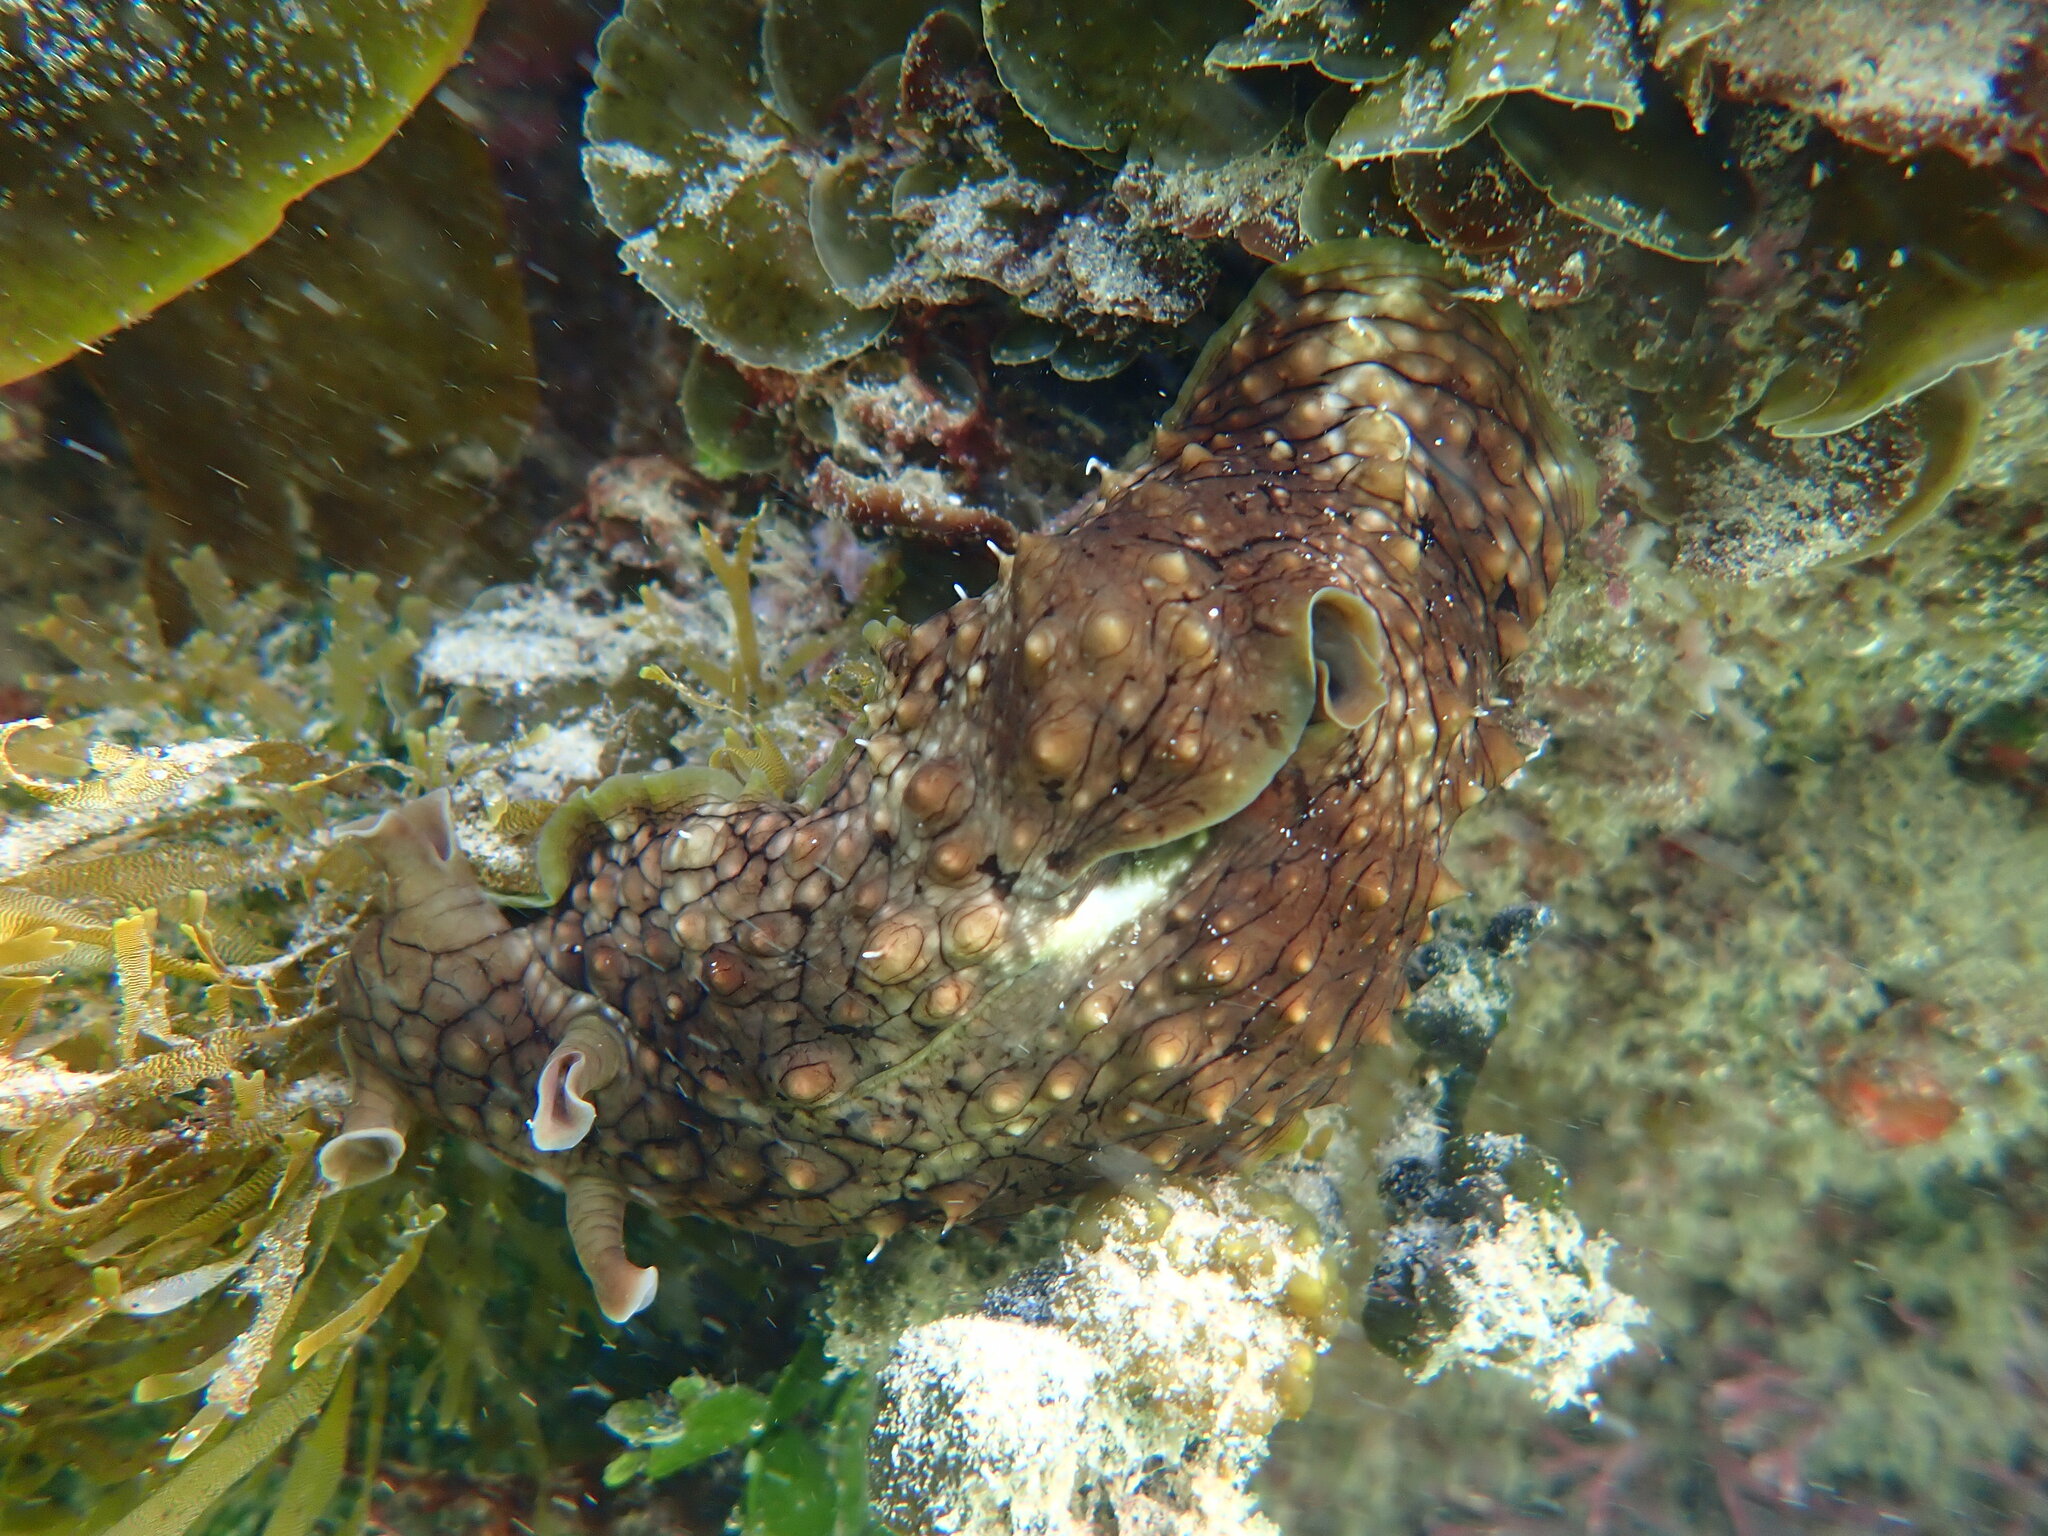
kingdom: Animalia
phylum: Mollusca
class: Gastropoda
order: Aplysiida
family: Aplysiidae
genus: Dolabrifera
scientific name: Dolabrifera brazieri
